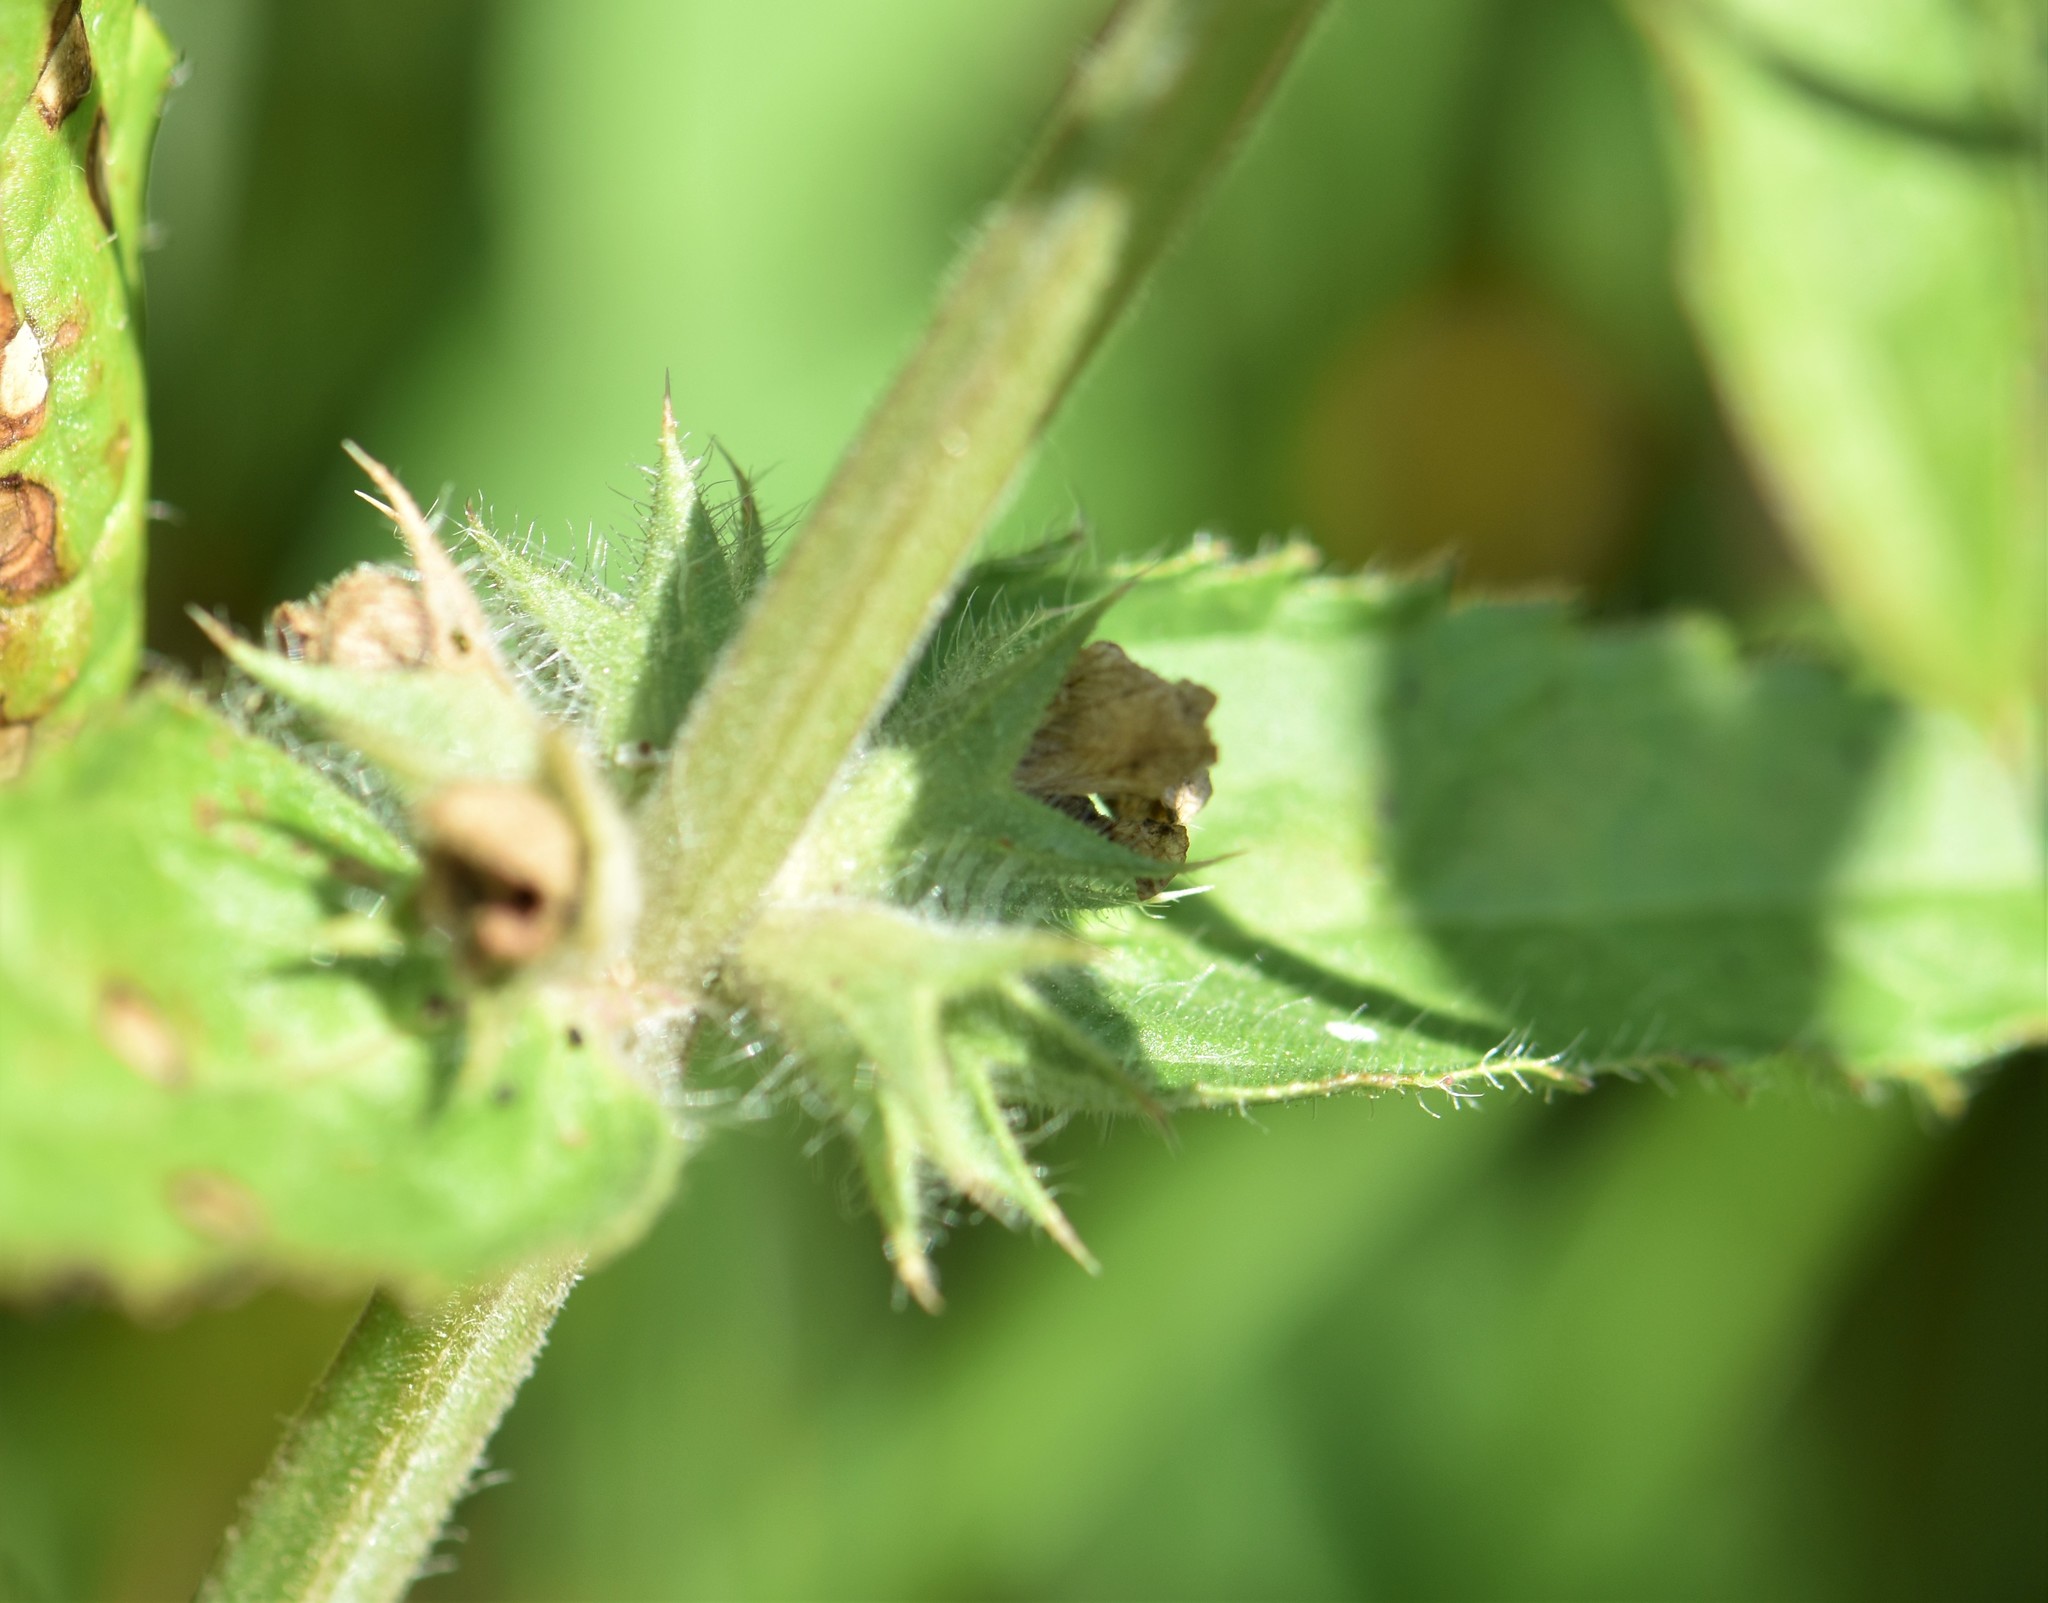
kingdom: Plantae
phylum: Tracheophyta
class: Magnoliopsida
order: Lamiales
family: Lamiaceae
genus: Stachys
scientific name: Stachys pilosa
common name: Hairy hedge-nettle
